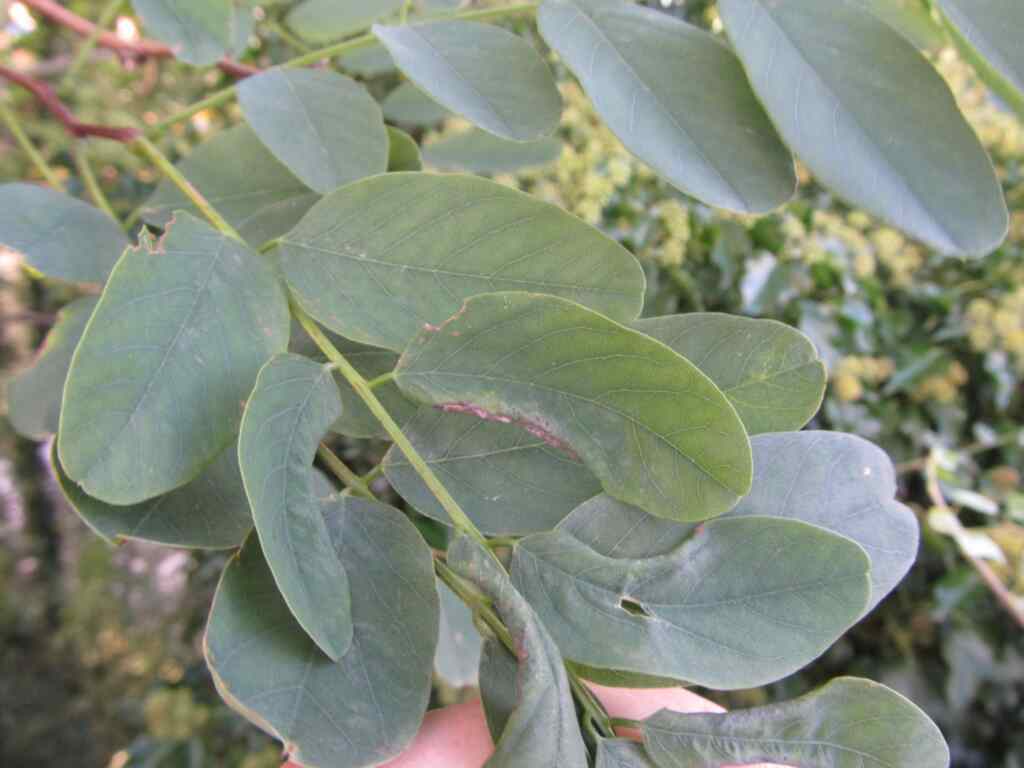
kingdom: Animalia
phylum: Arthropoda
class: Insecta
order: Diptera
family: Cecidomyiidae
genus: Obolodiplosis
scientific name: Obolodiplosis robiniae
